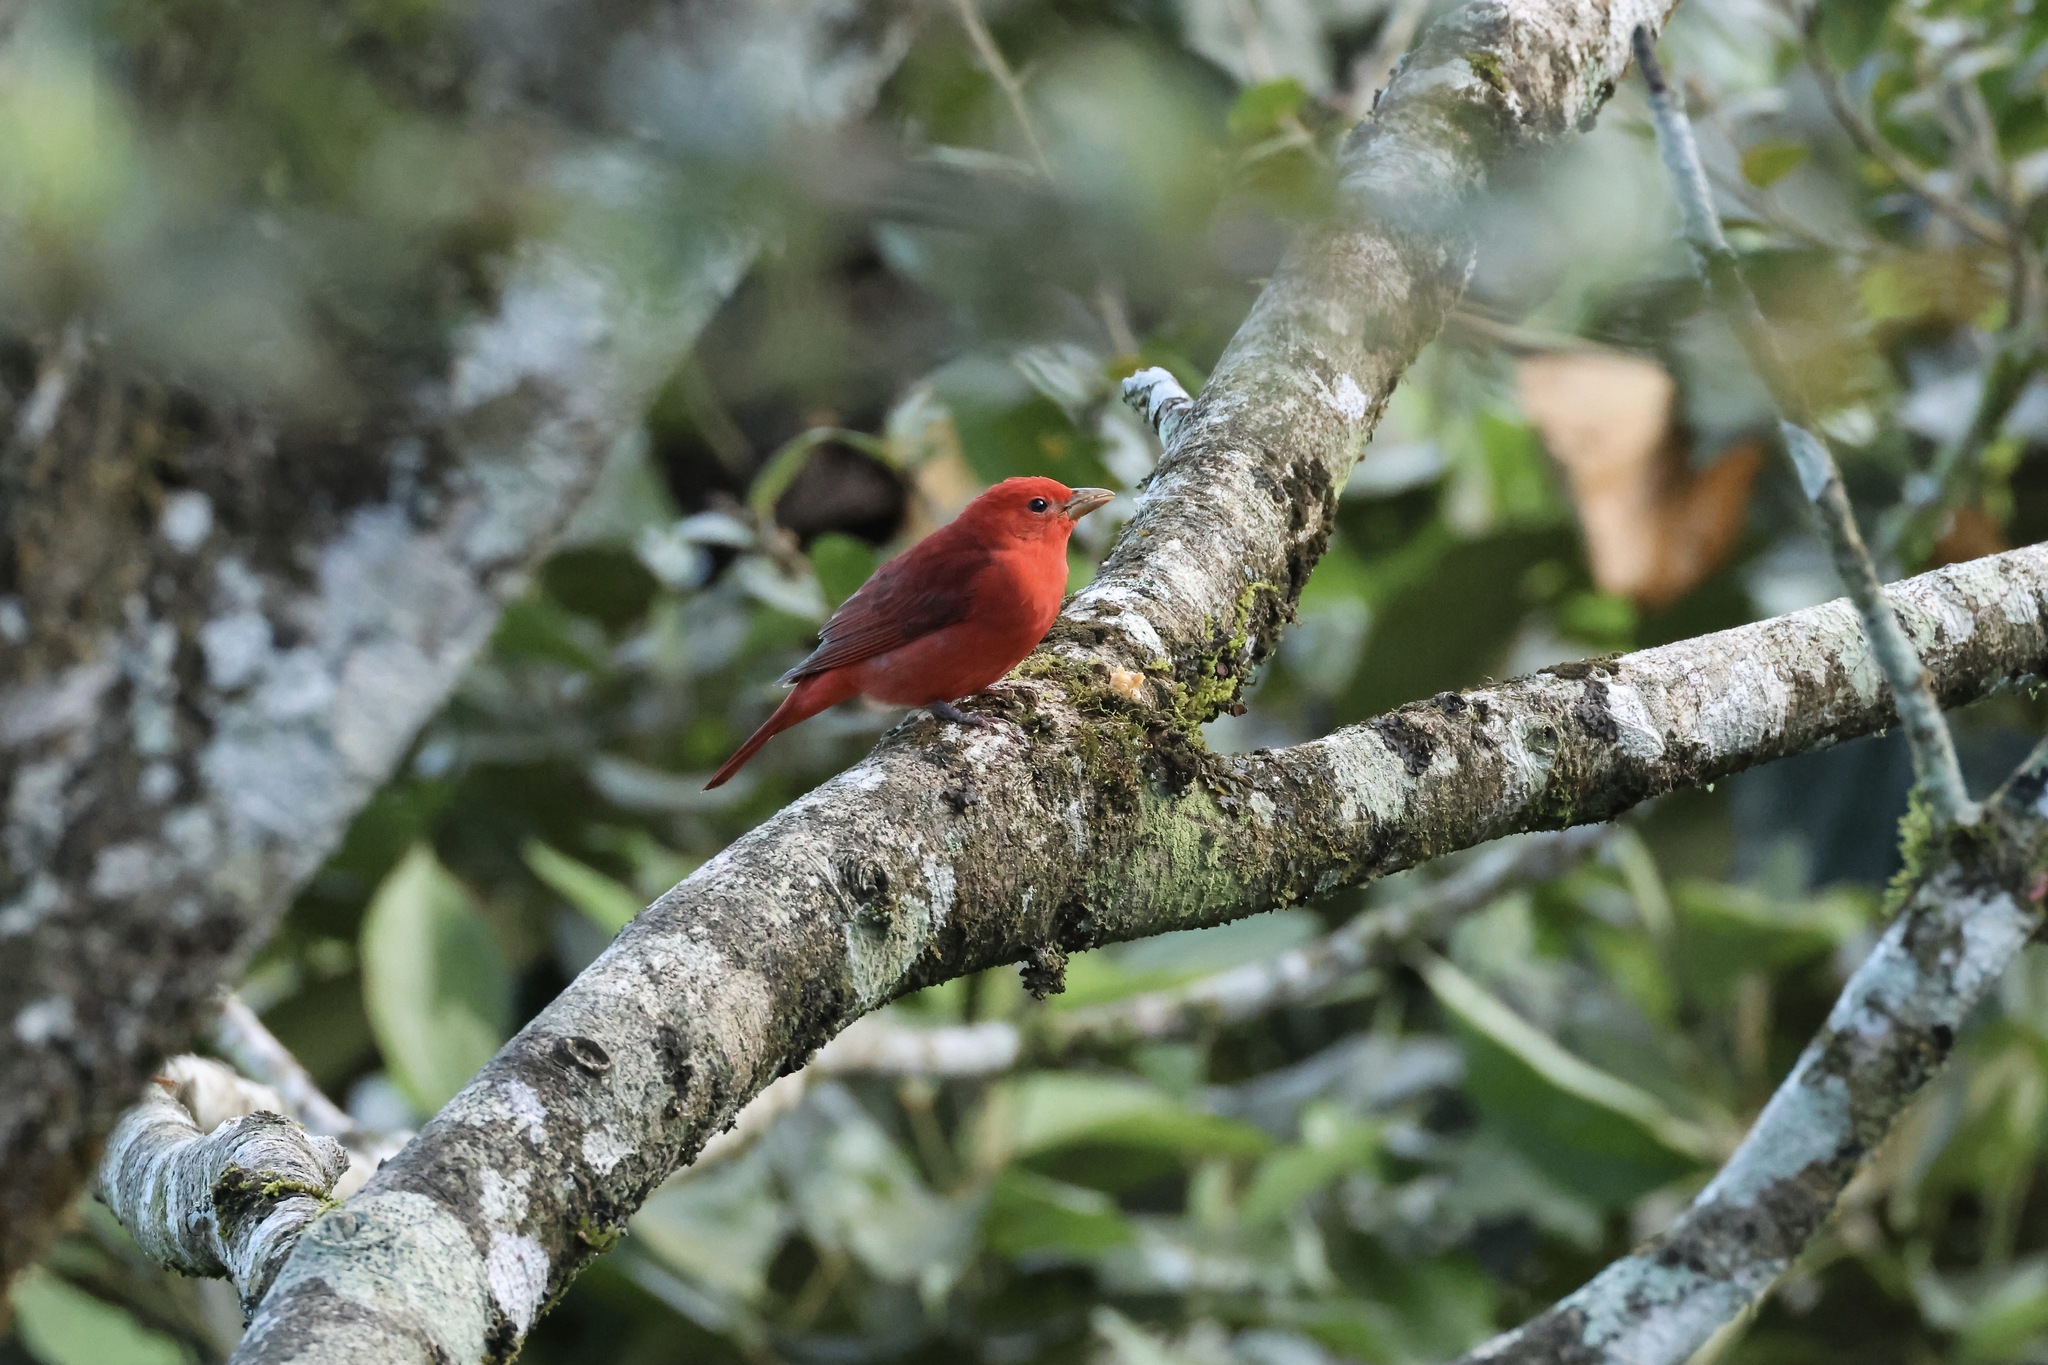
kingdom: Animalia
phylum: Chordata
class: Aves
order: Passeriformes
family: Cardinalidae
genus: Piranga
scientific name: Piranga rubra
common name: Summer tanager
